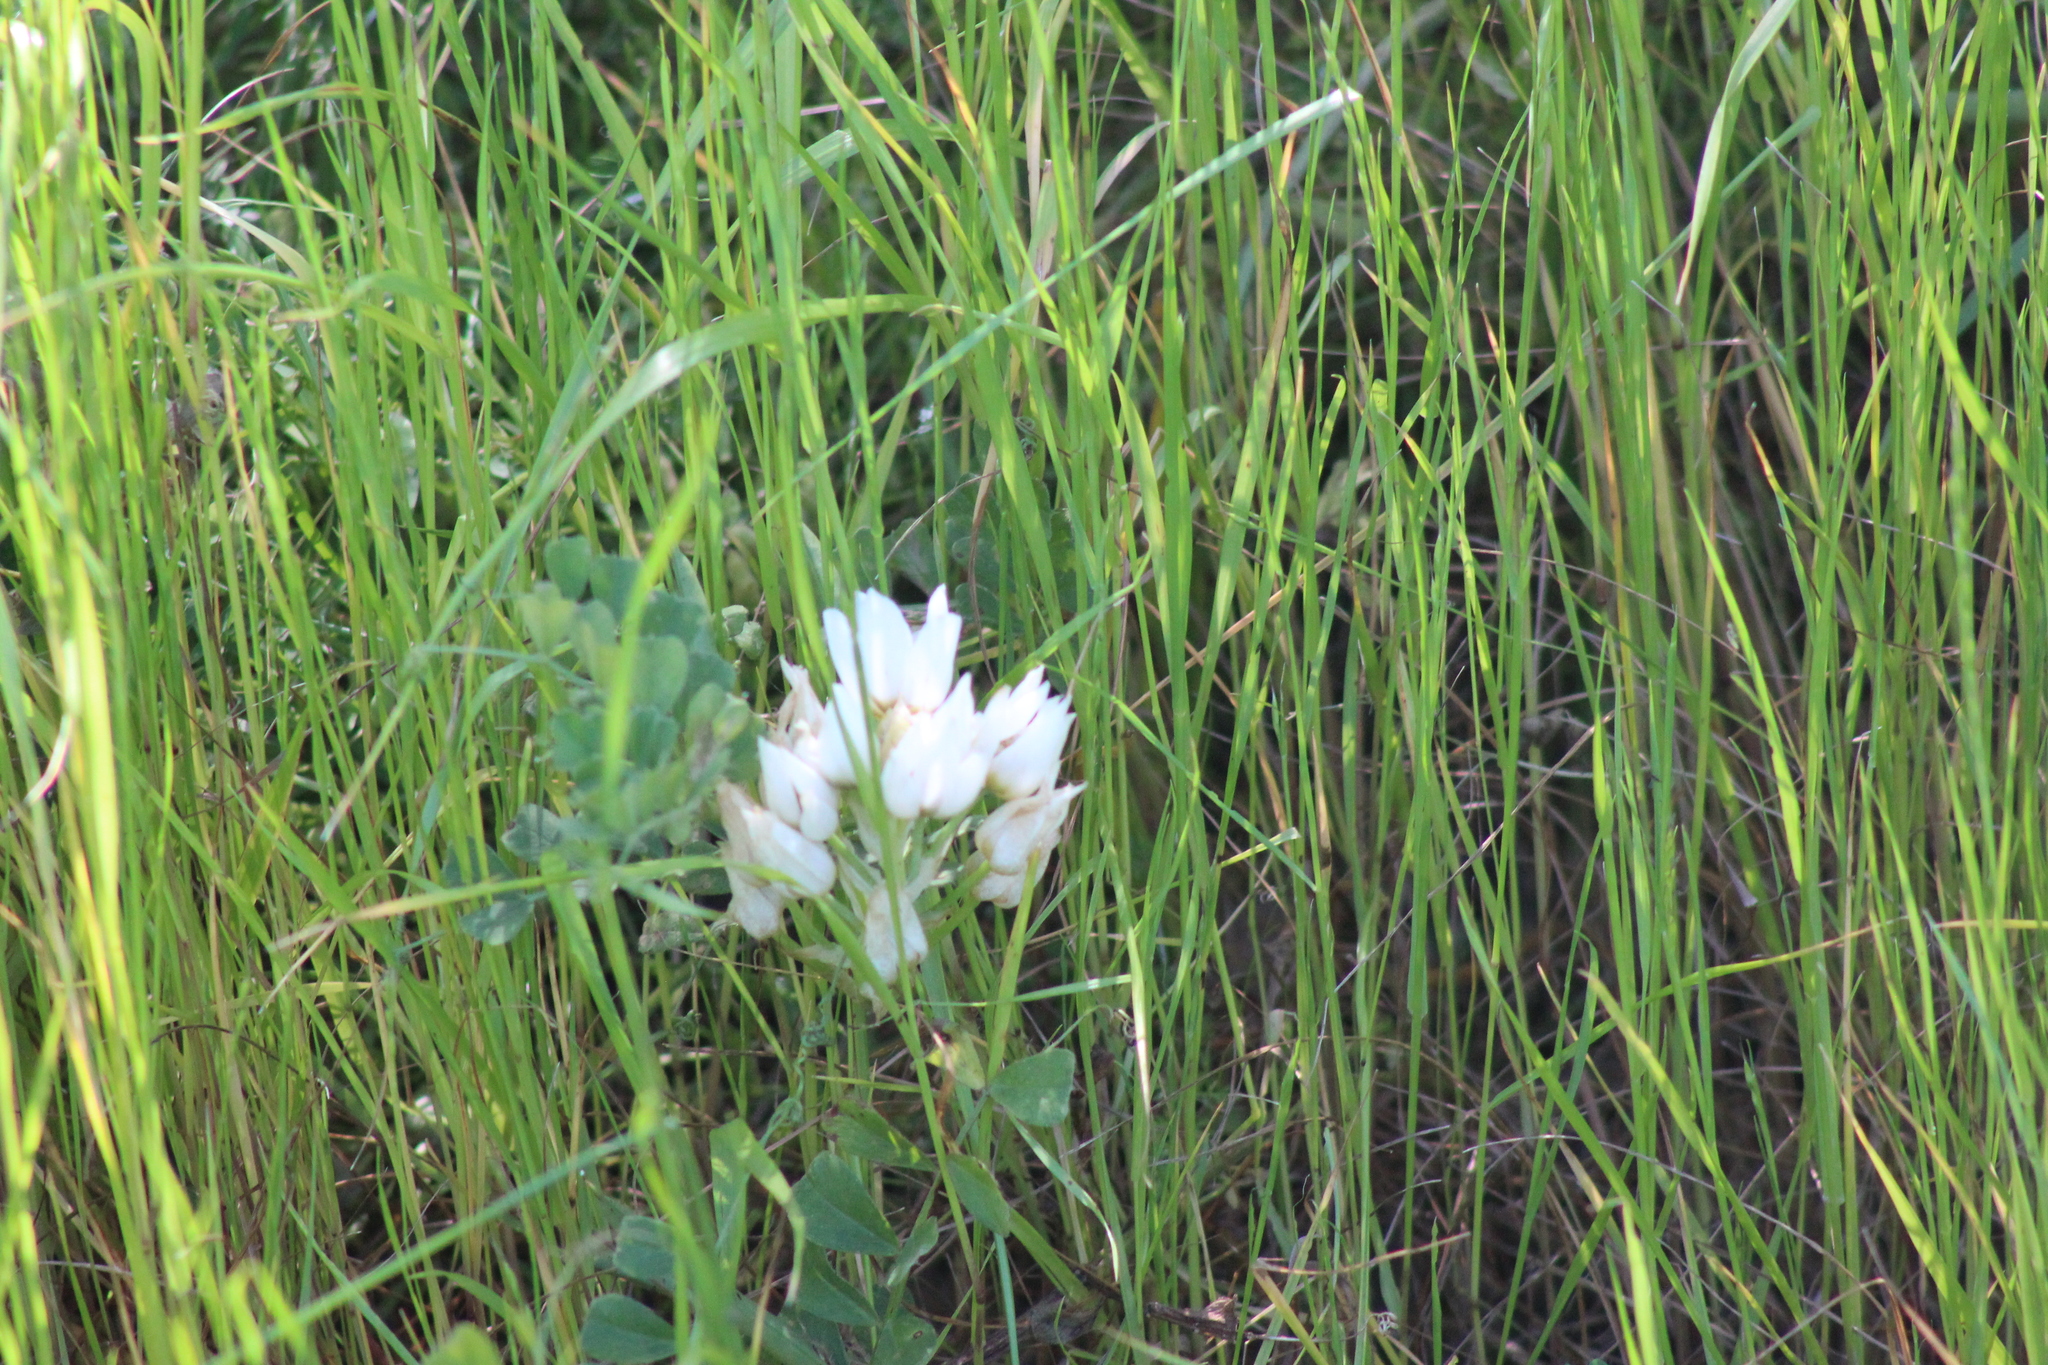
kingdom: Plantae
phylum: Tracheophyta
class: Liliopsida
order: Asparagales
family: Asparagaceae
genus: Ornithogalum
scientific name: Ornithogalum thyrsoides
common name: Chincherinchee
